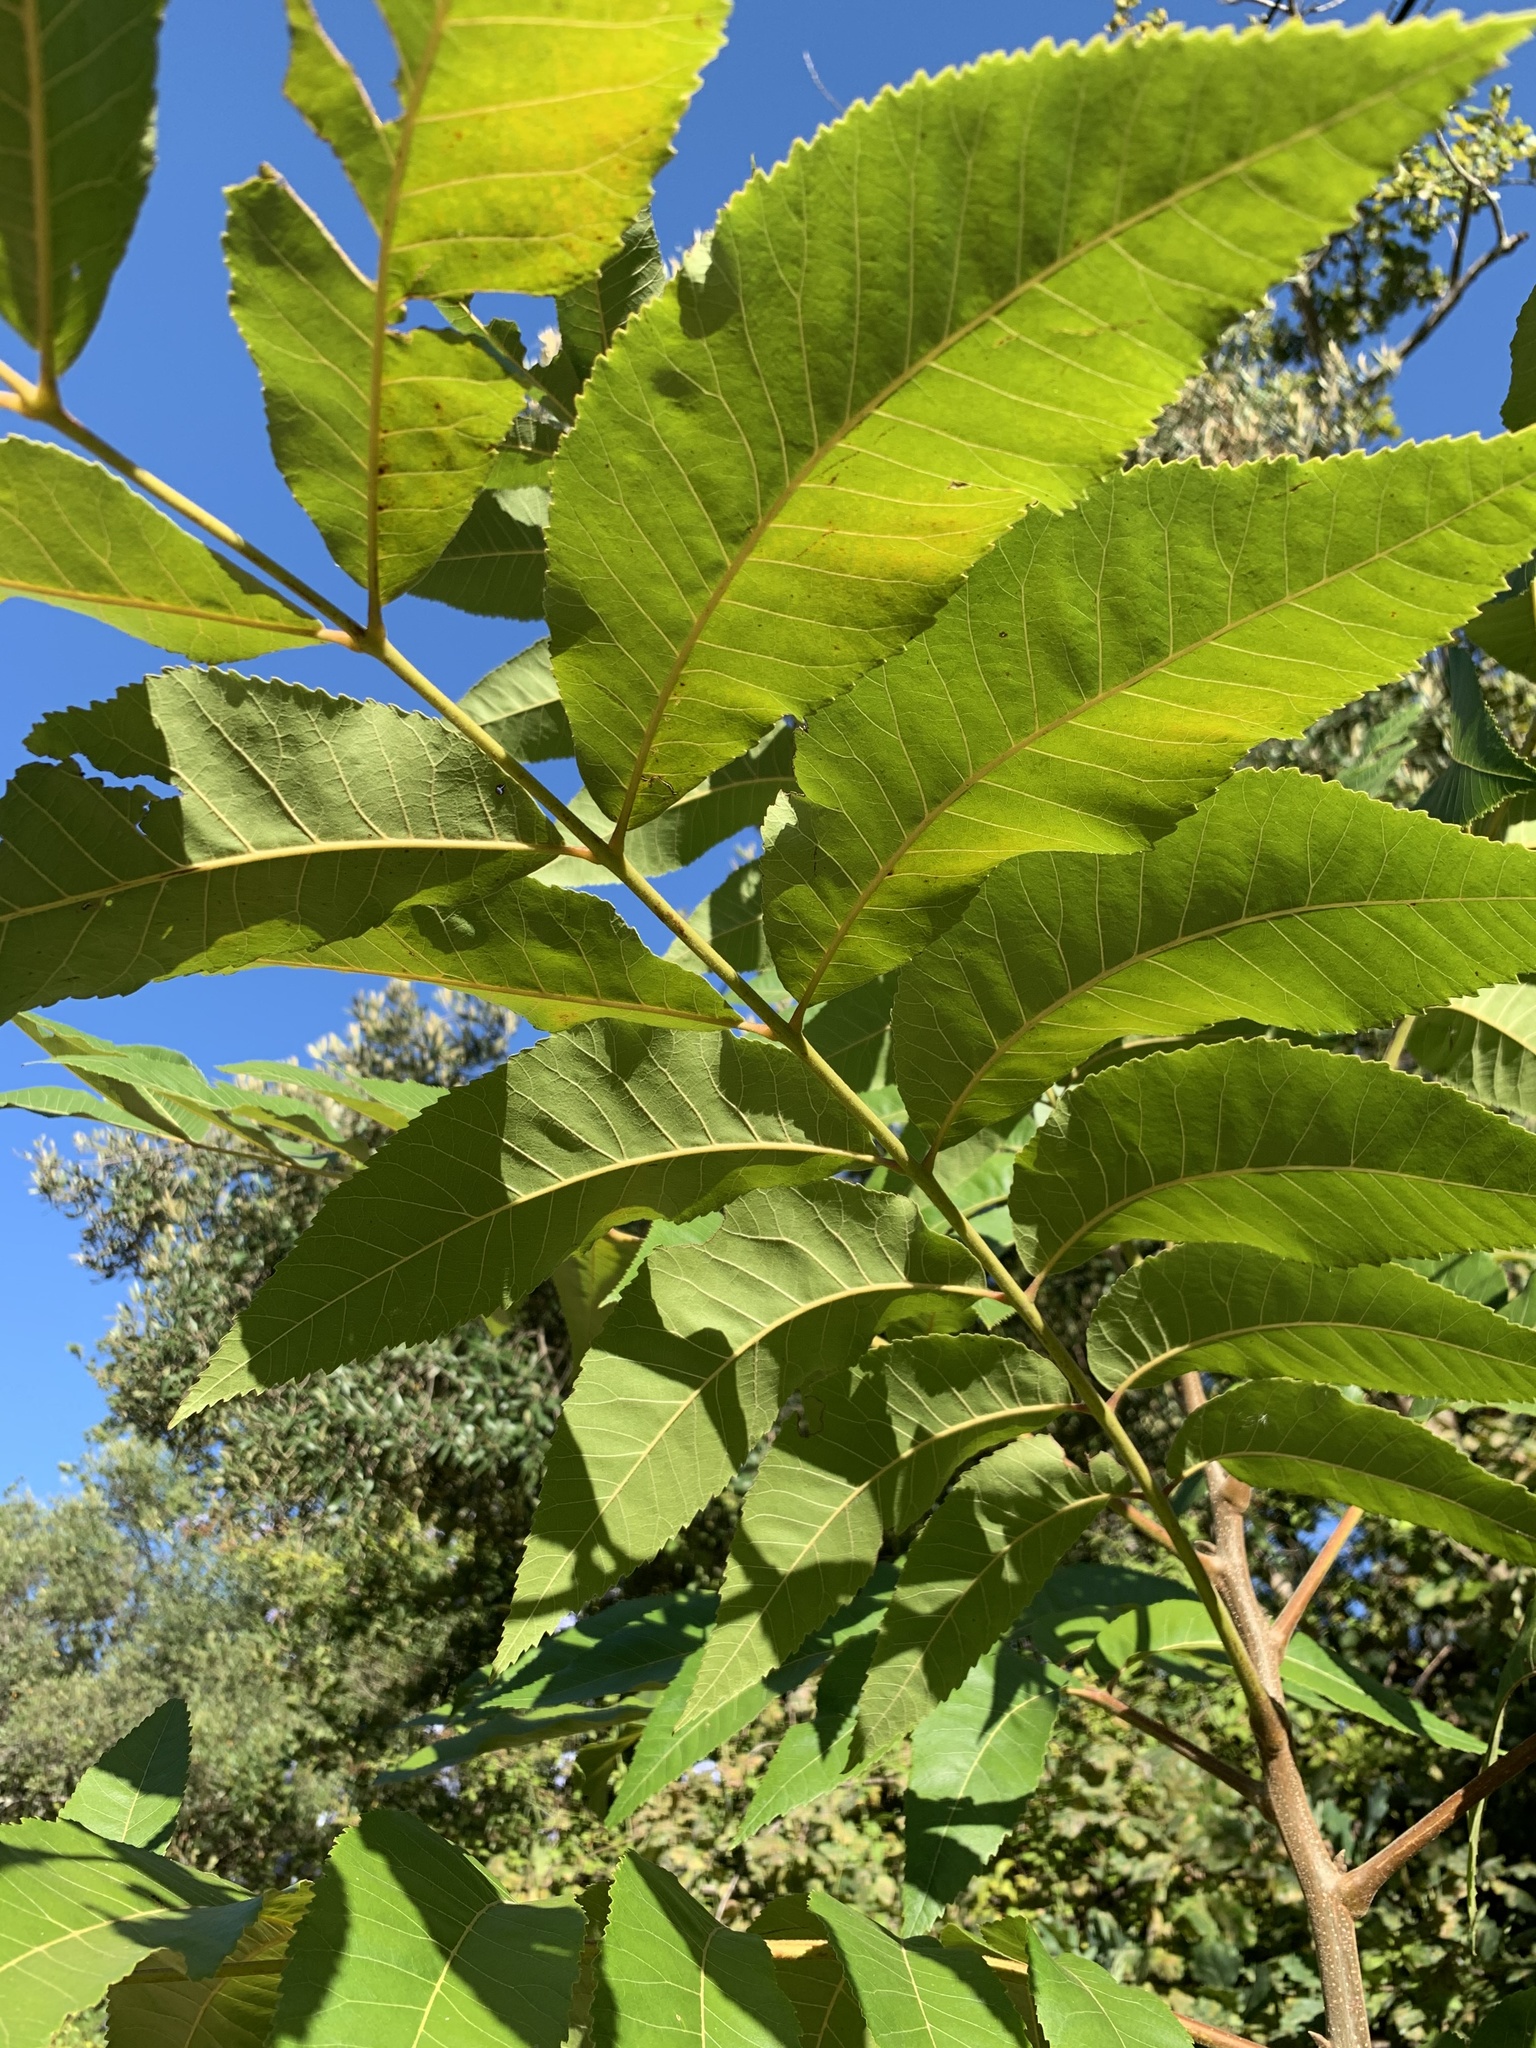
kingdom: Plantae
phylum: Tracheophyta
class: Magnoliopsida
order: Fagales
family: Juglandaceae
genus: Carya
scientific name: Carya illinoinensis
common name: Pecan
